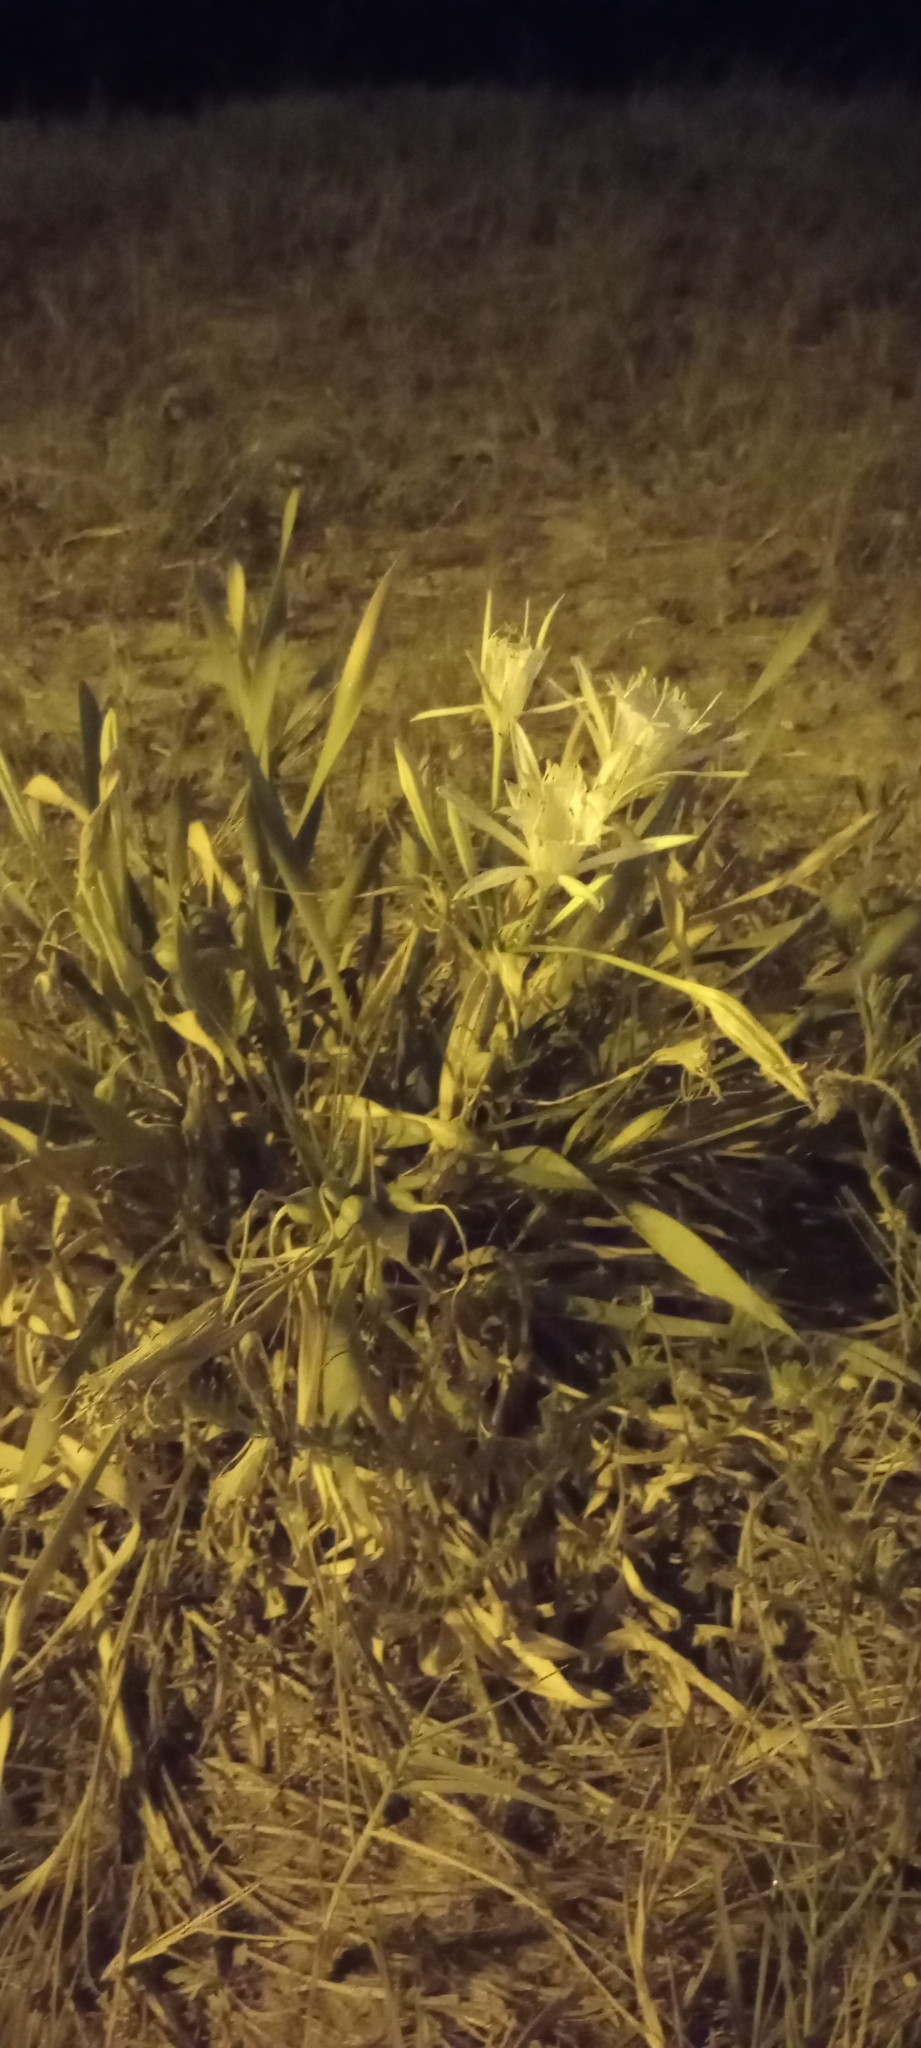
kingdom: Plantae
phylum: Tracheophyta
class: Liliopsida
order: Asparagales
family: Amaryllidaceae
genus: Pancratium
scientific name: Pancratium maritimum
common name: Sea-daffodil
